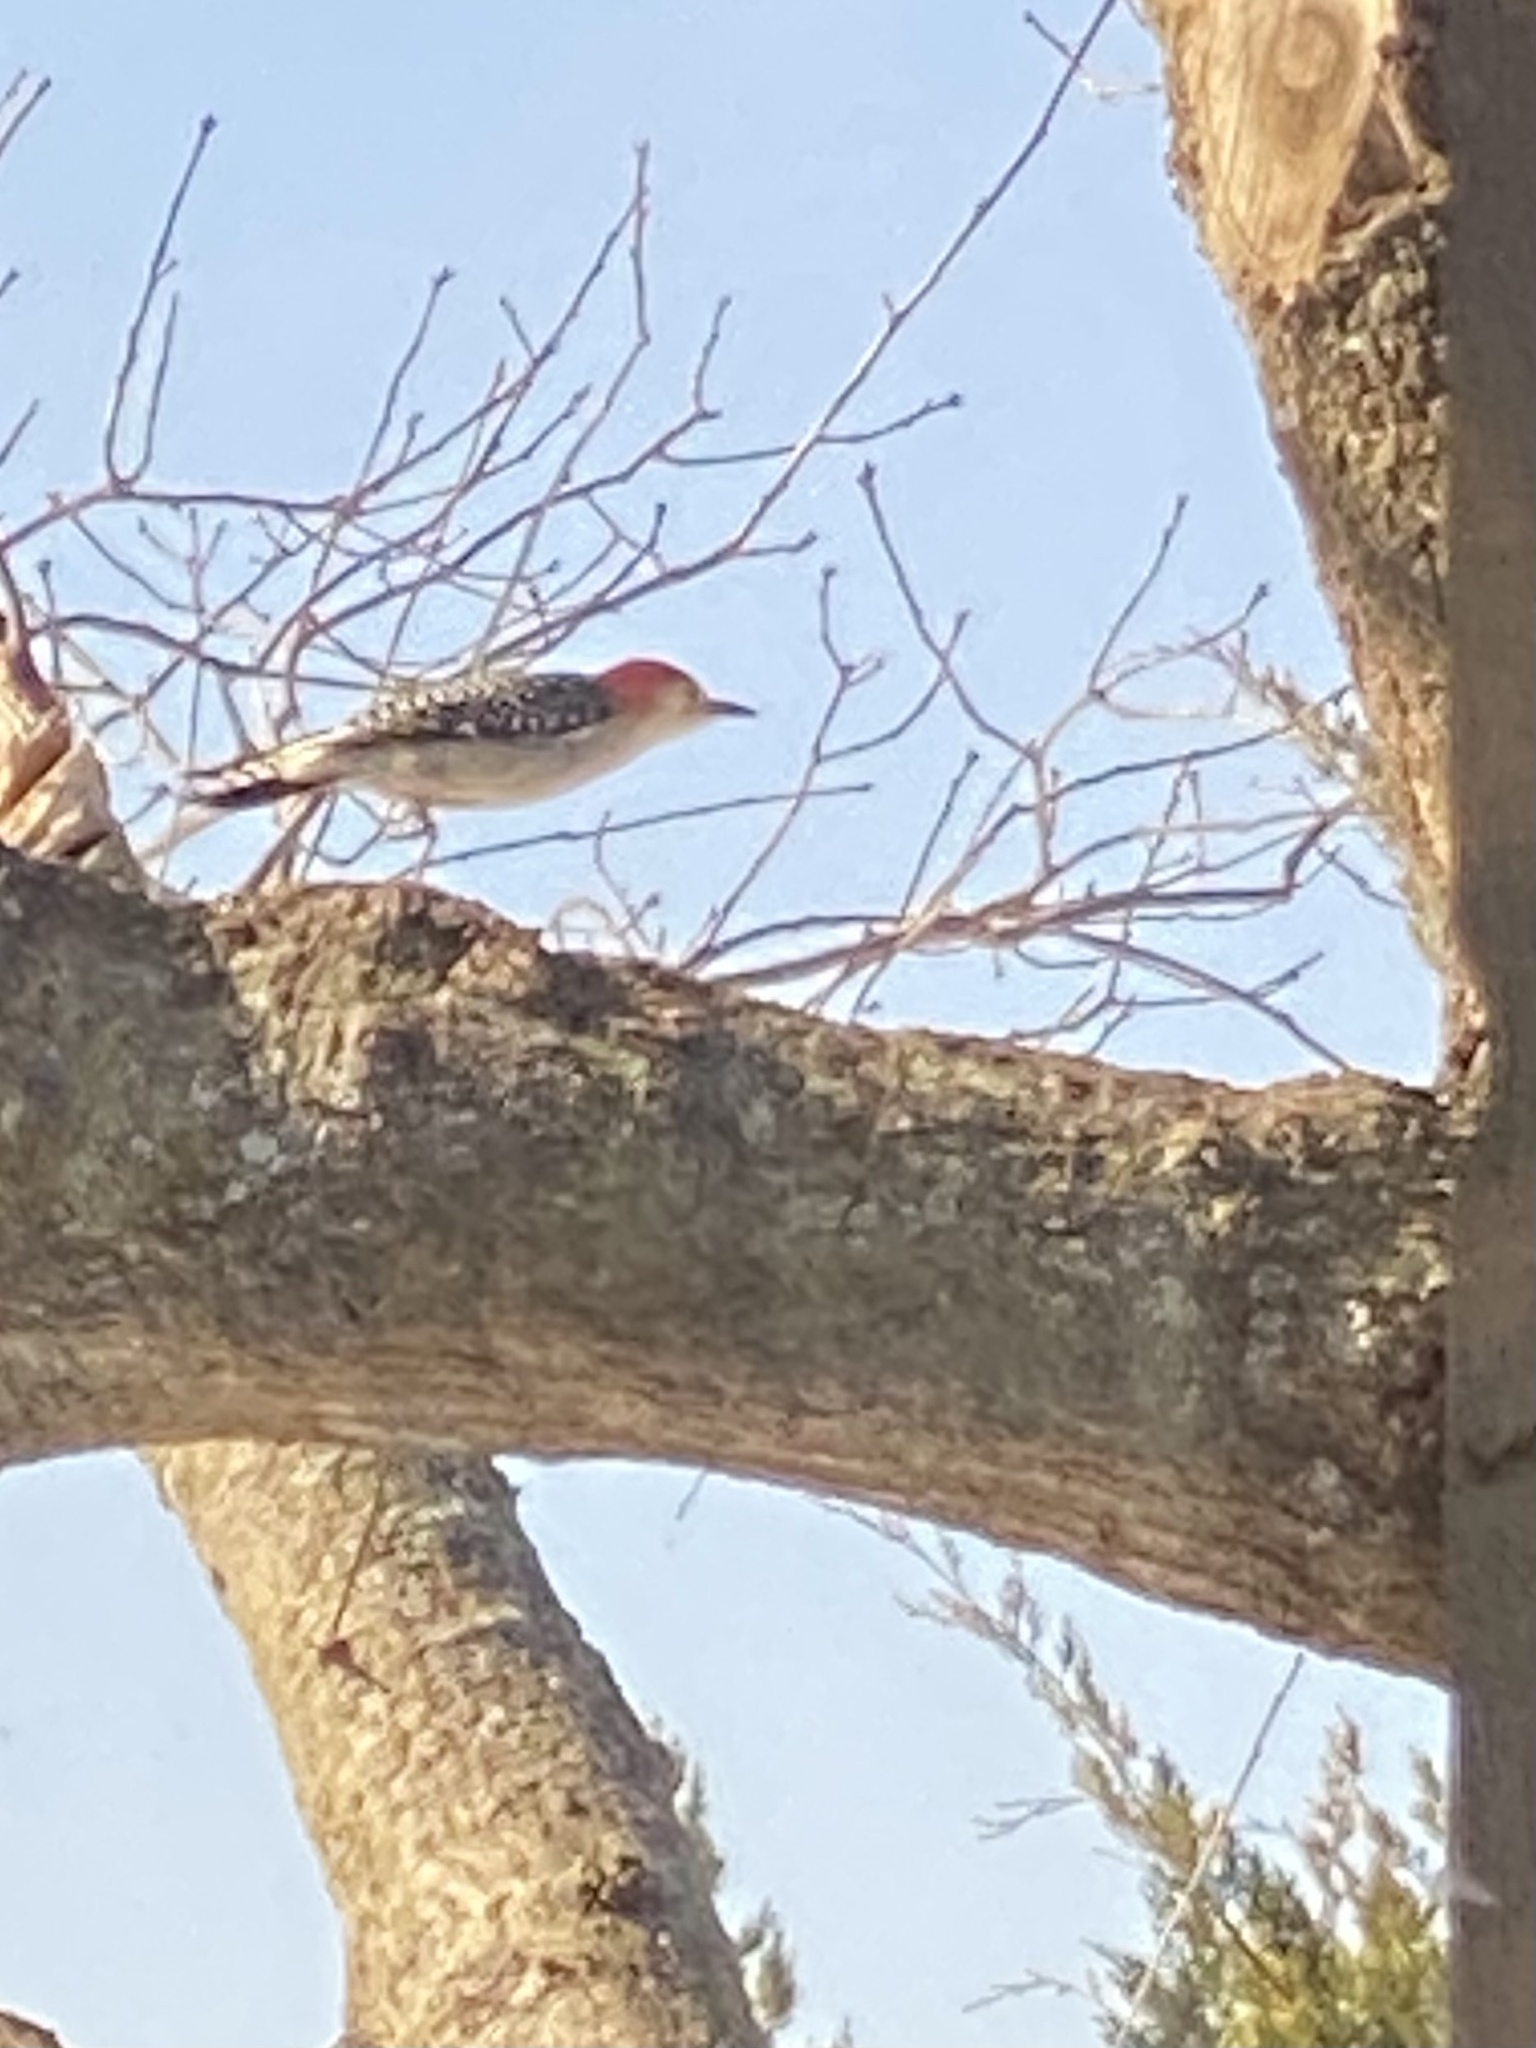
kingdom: Animalia
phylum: Chordata
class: Aves
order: Piciformes
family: Picidae
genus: Melanerpes
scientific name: Melanerpes carolinus
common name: Red-bellied woodpecker
